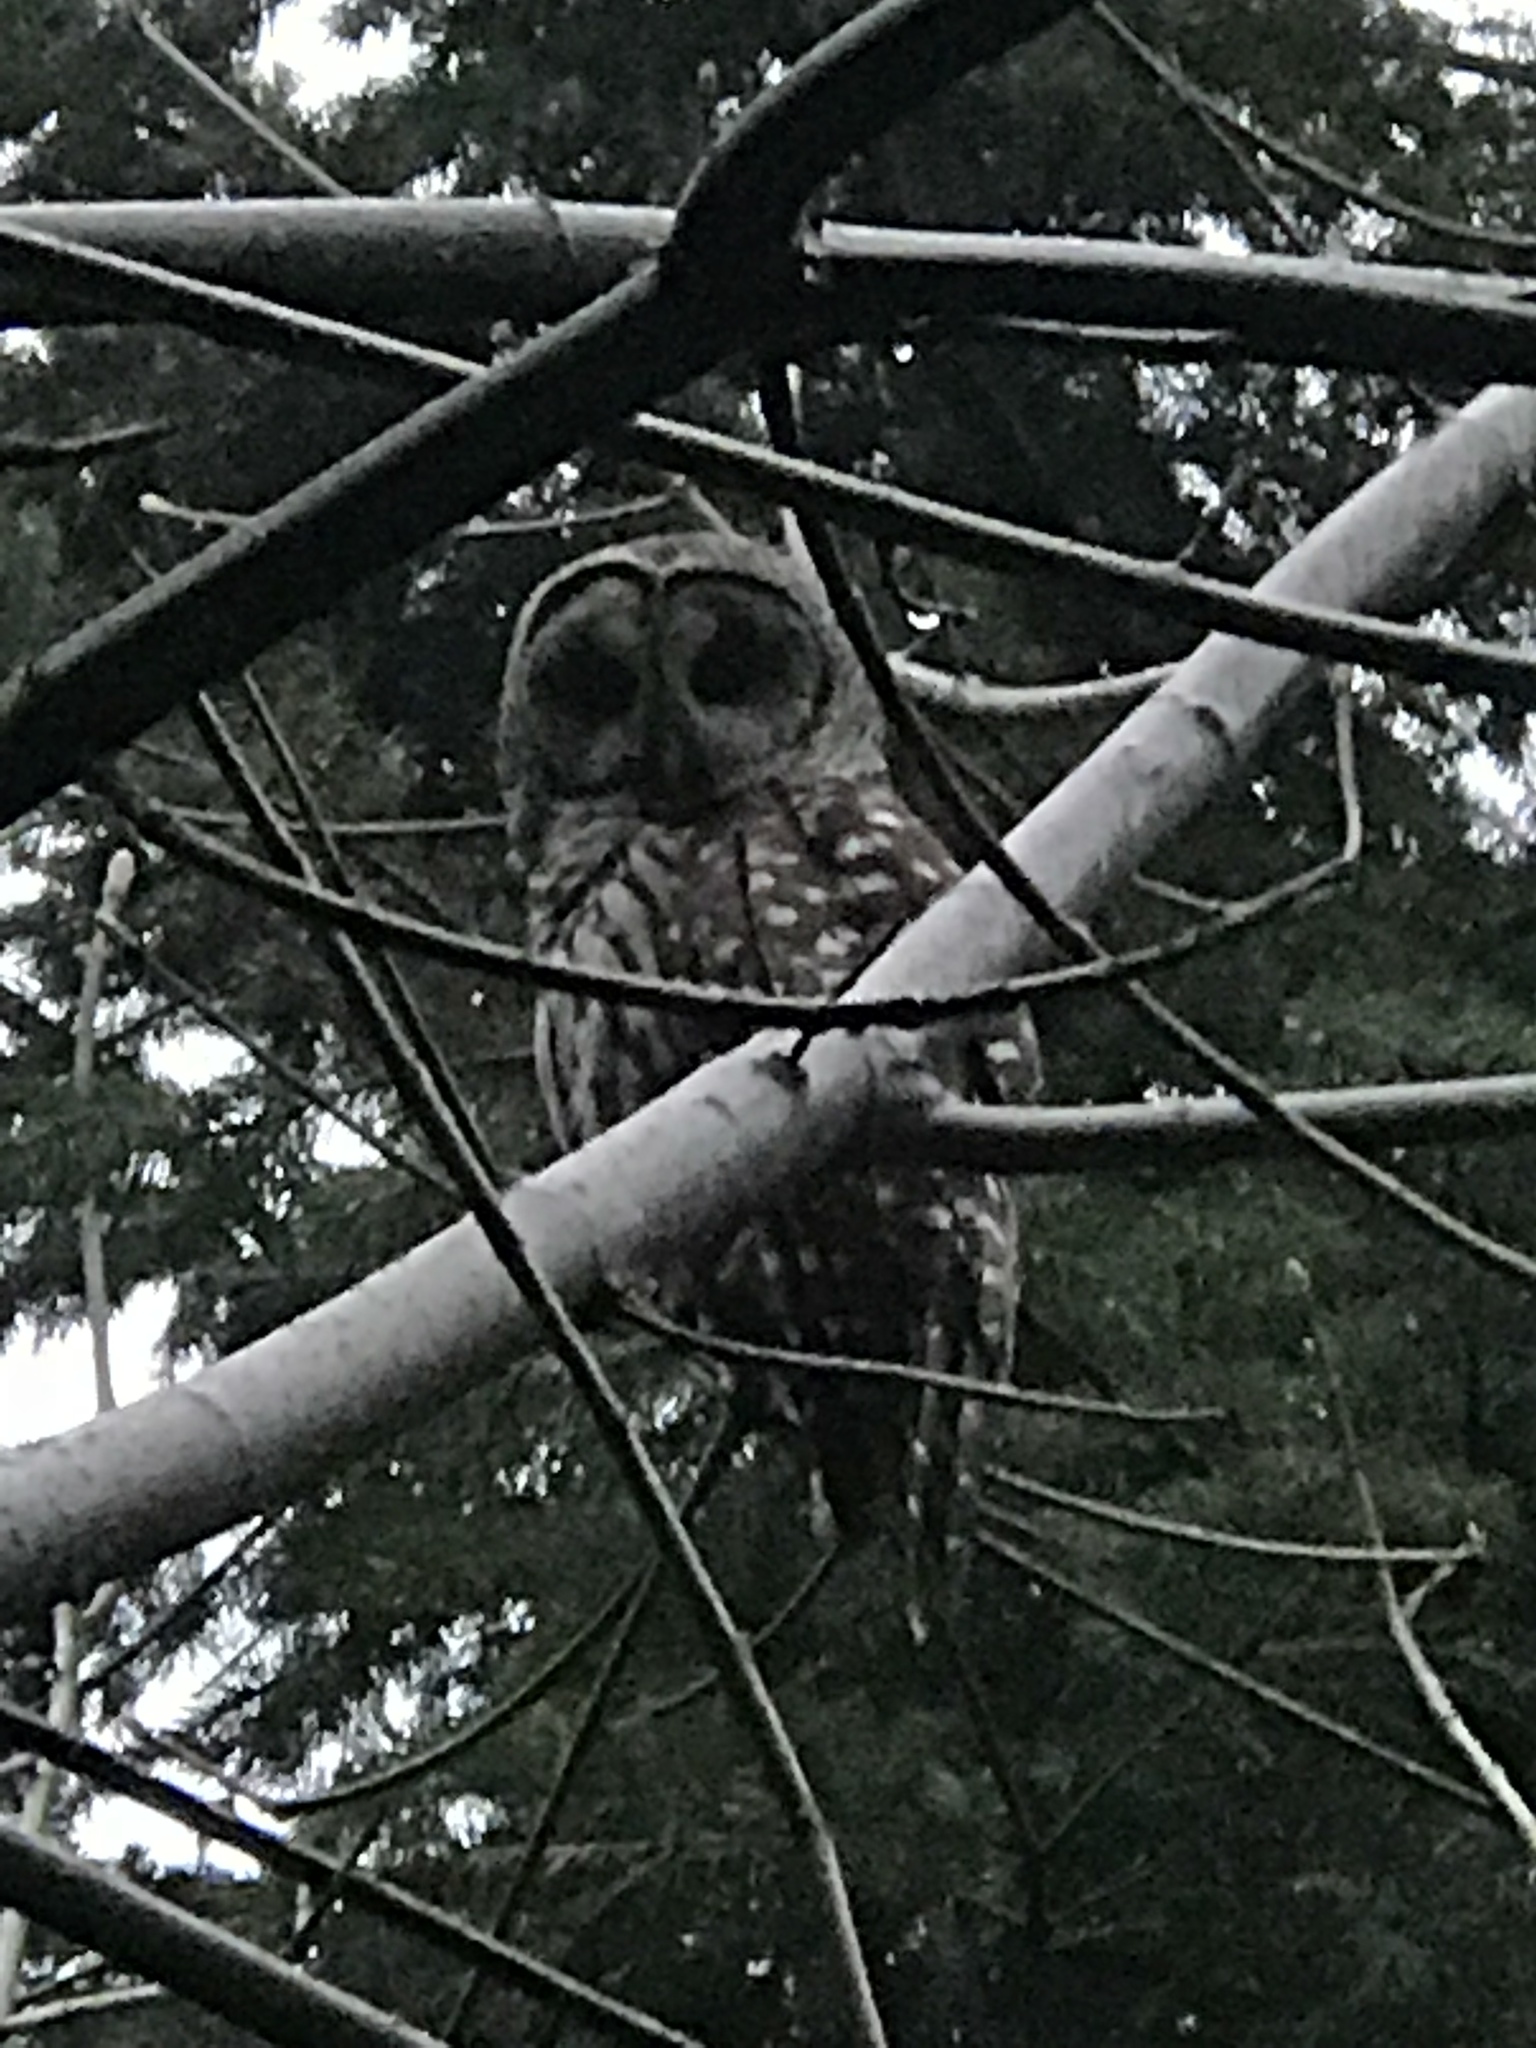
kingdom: Animalia
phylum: Chordata
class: Aves
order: Strigiformes
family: Strigidae
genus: Strix
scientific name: Strix varia
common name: Barred owl
